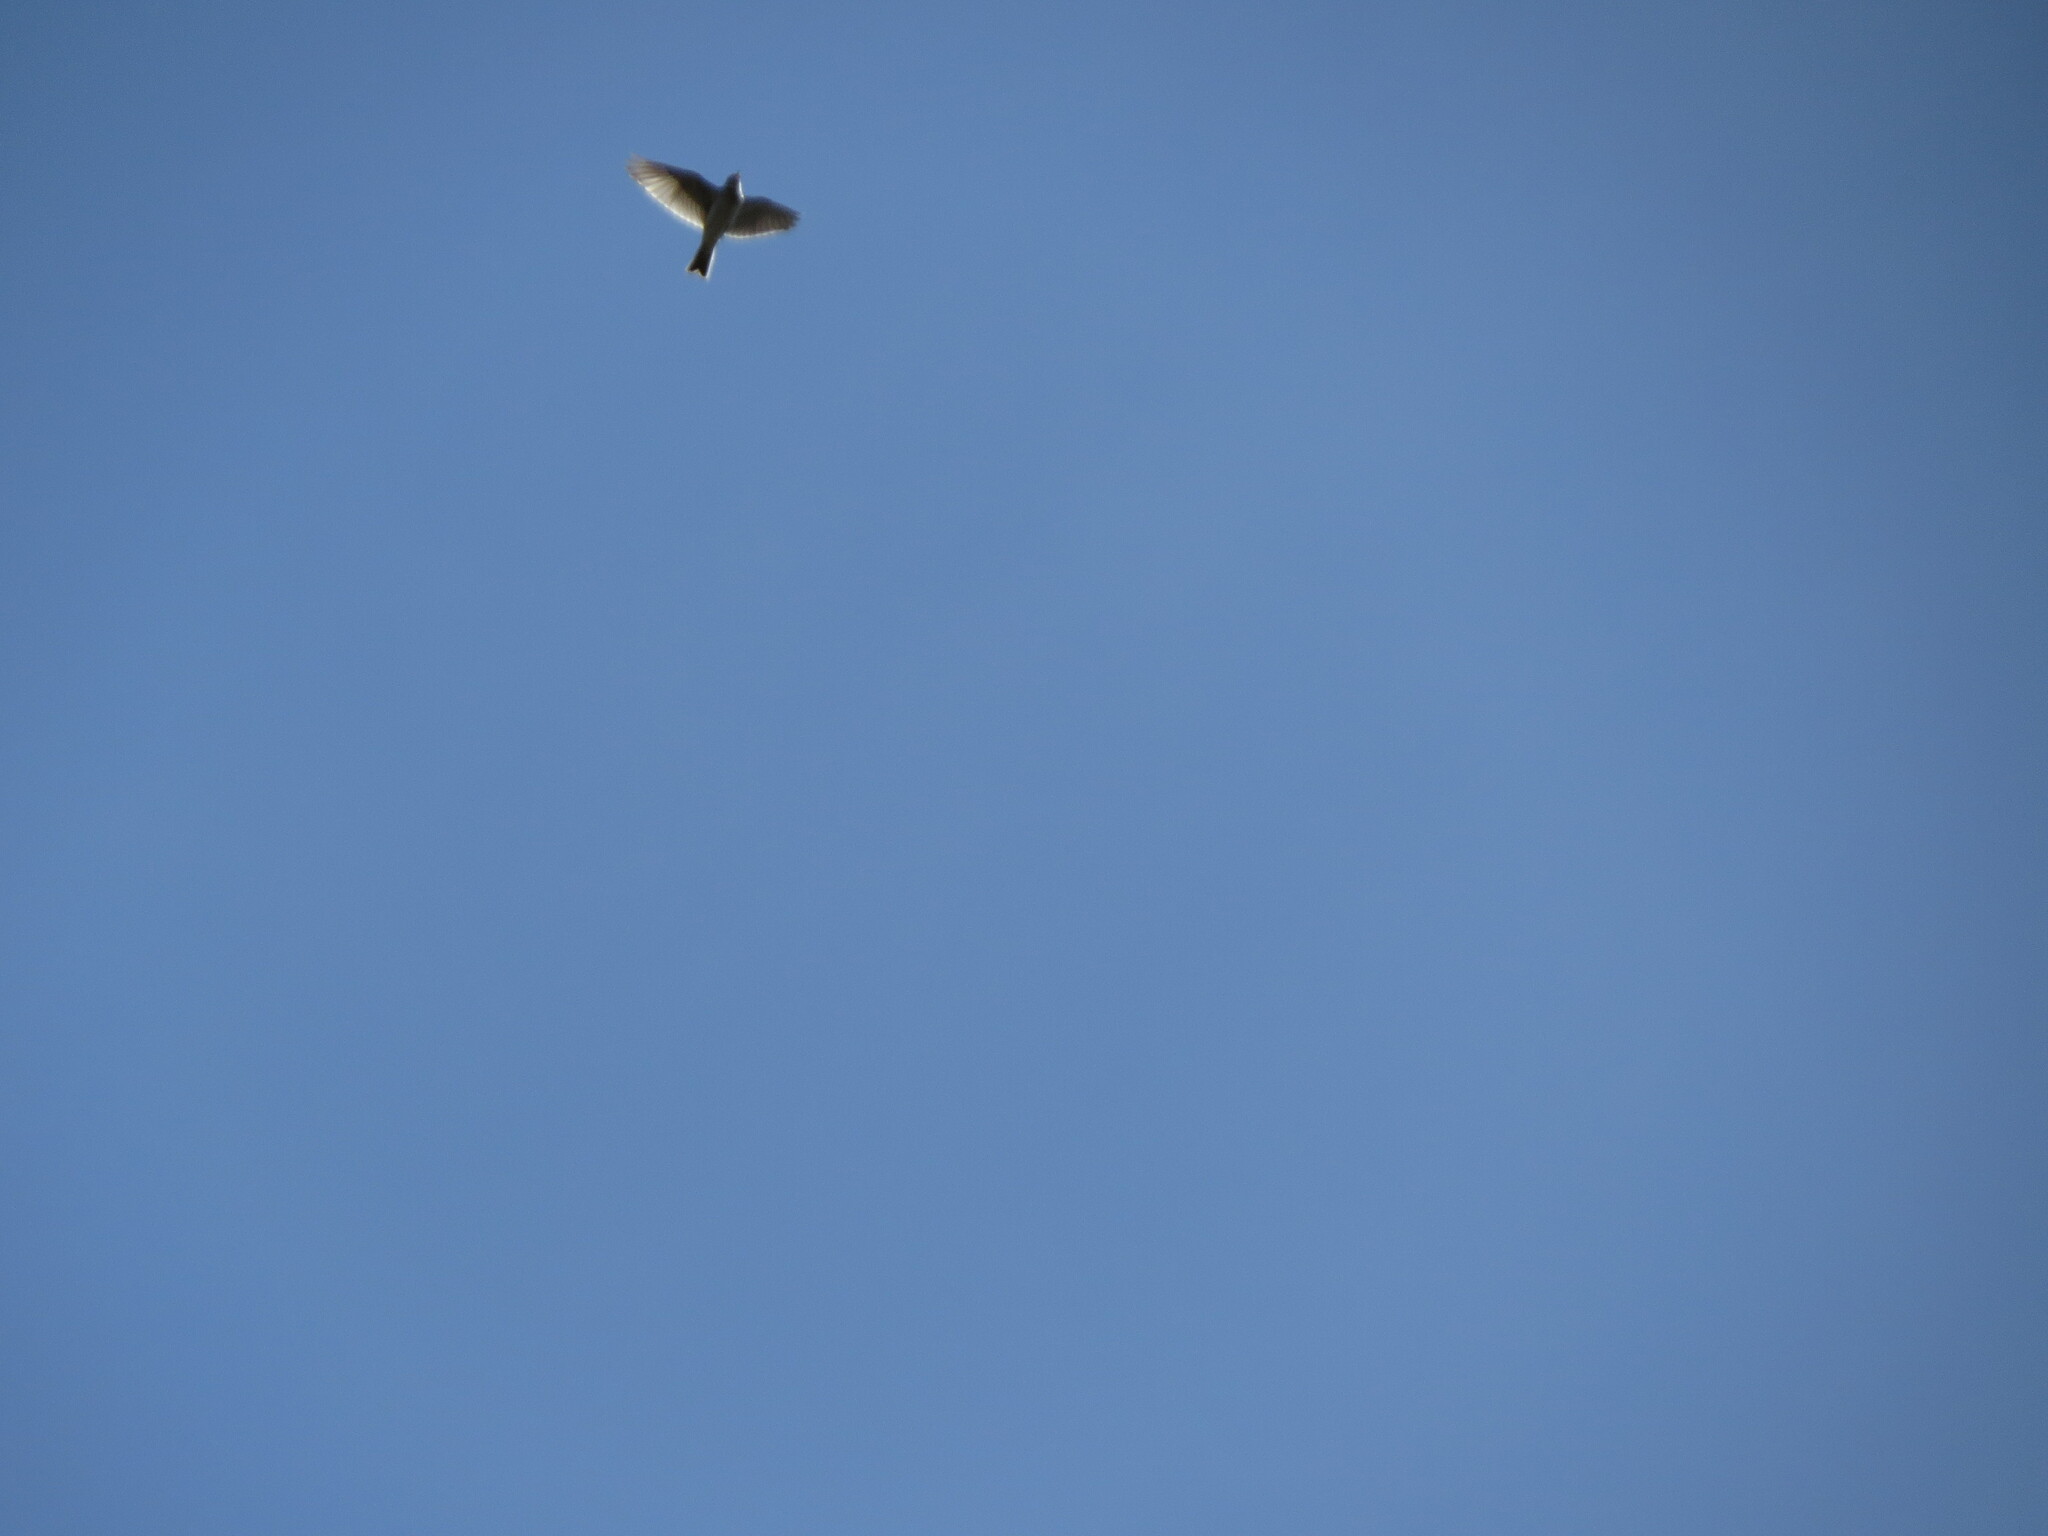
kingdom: Animalia
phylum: Chordata
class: Aves
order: Passeriformes
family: Alaudidae
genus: Alauda
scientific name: Alauda arvensis
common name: Eurasian skylark
